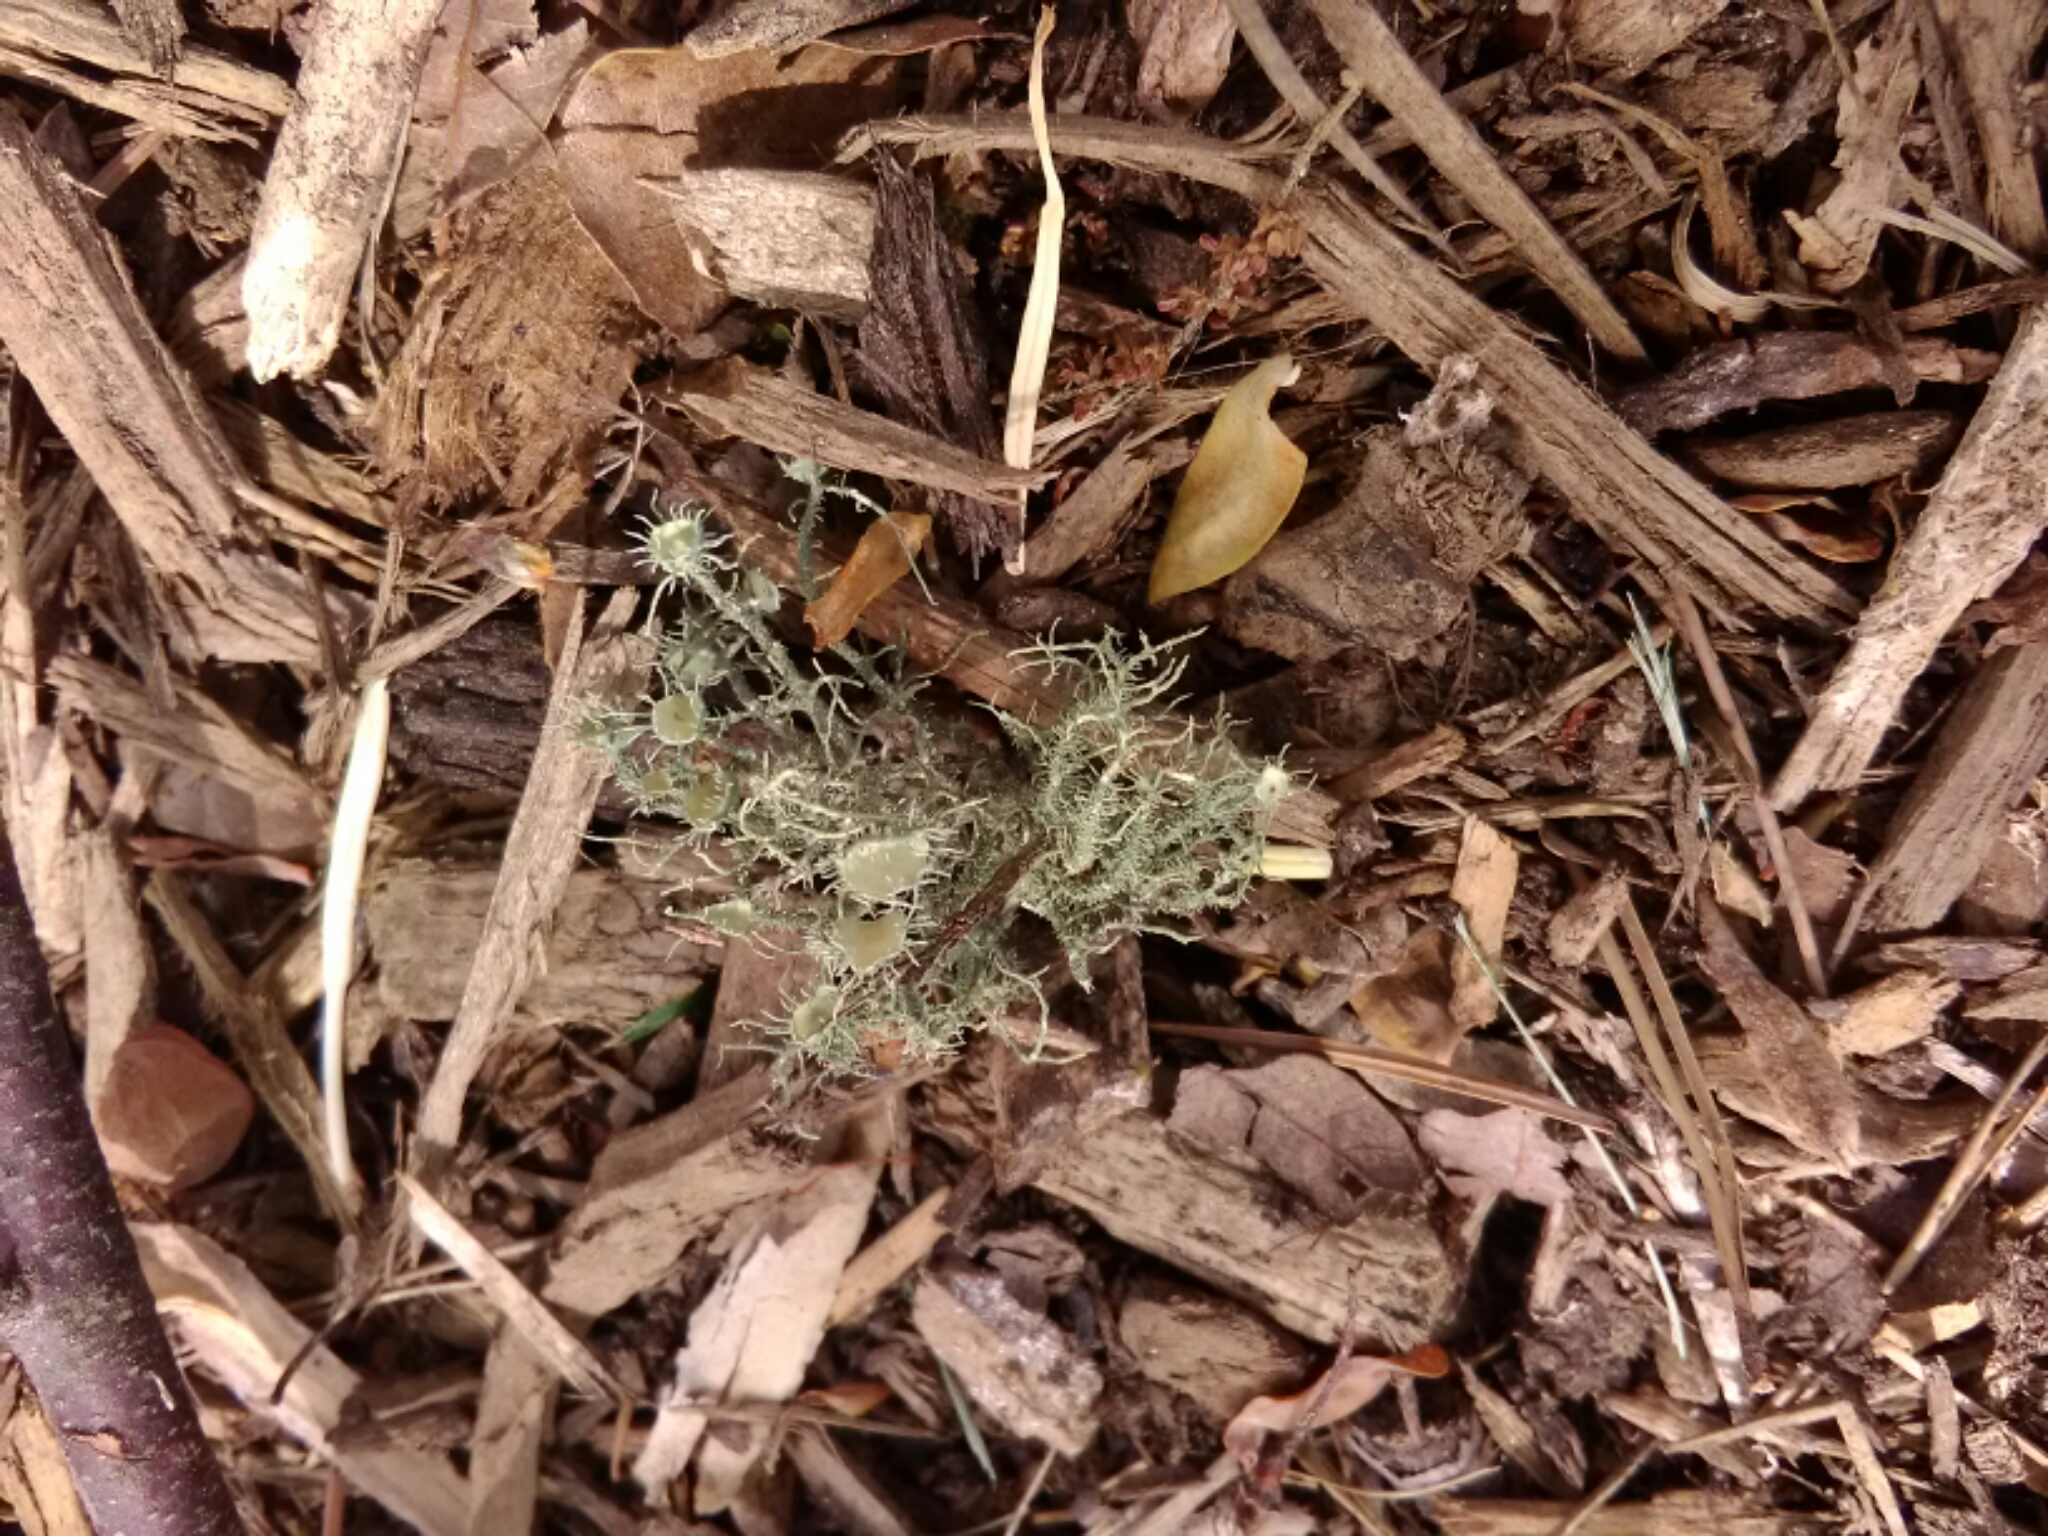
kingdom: Fungi
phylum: Ascomycota
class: Lecanoromycetes
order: Lecanorales
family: Parmeliaceae
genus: Usnea
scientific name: Usnea strigosa
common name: Bushy beard lichen
